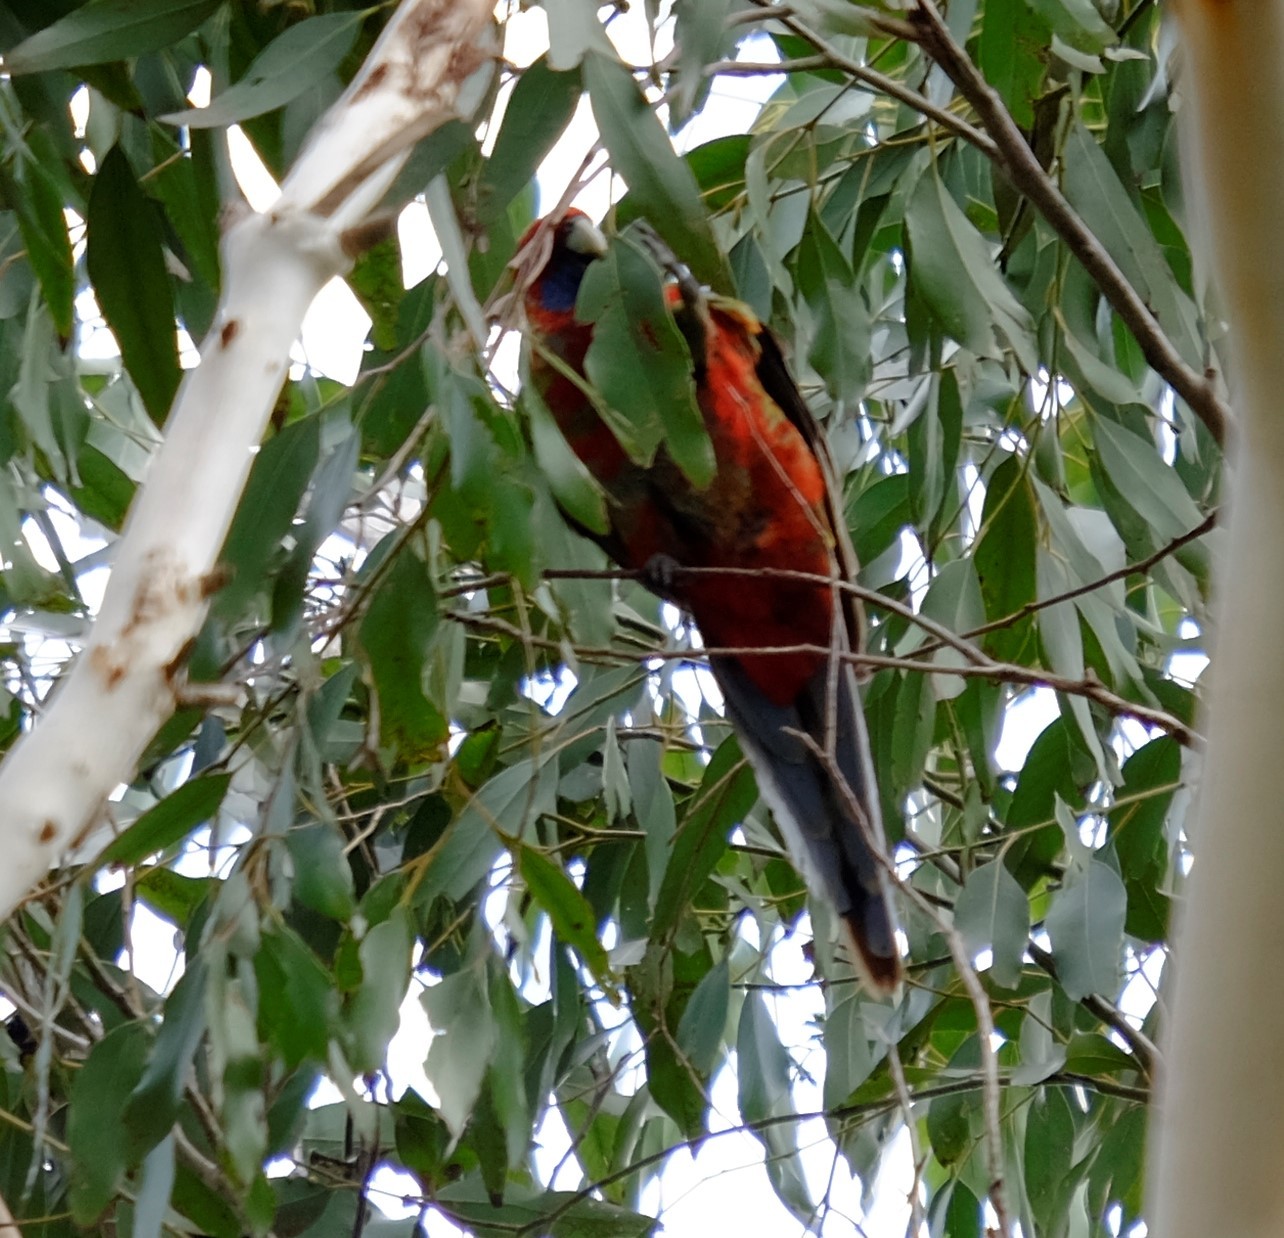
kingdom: Animalia
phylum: Chordata
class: Aves
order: Psittaciformes
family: Psittacidae
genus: Platycercus
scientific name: Platycercus elegans
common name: Crimson rosella
